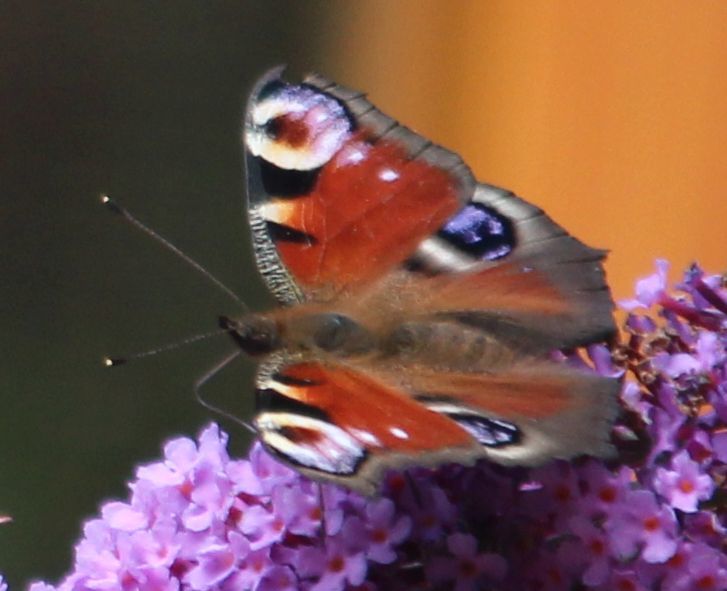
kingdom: Animalia
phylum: Arthropoda
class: Insecta
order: Lepidoptera
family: Nymphalidae
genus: Aglais
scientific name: Aglais io
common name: Peacock
